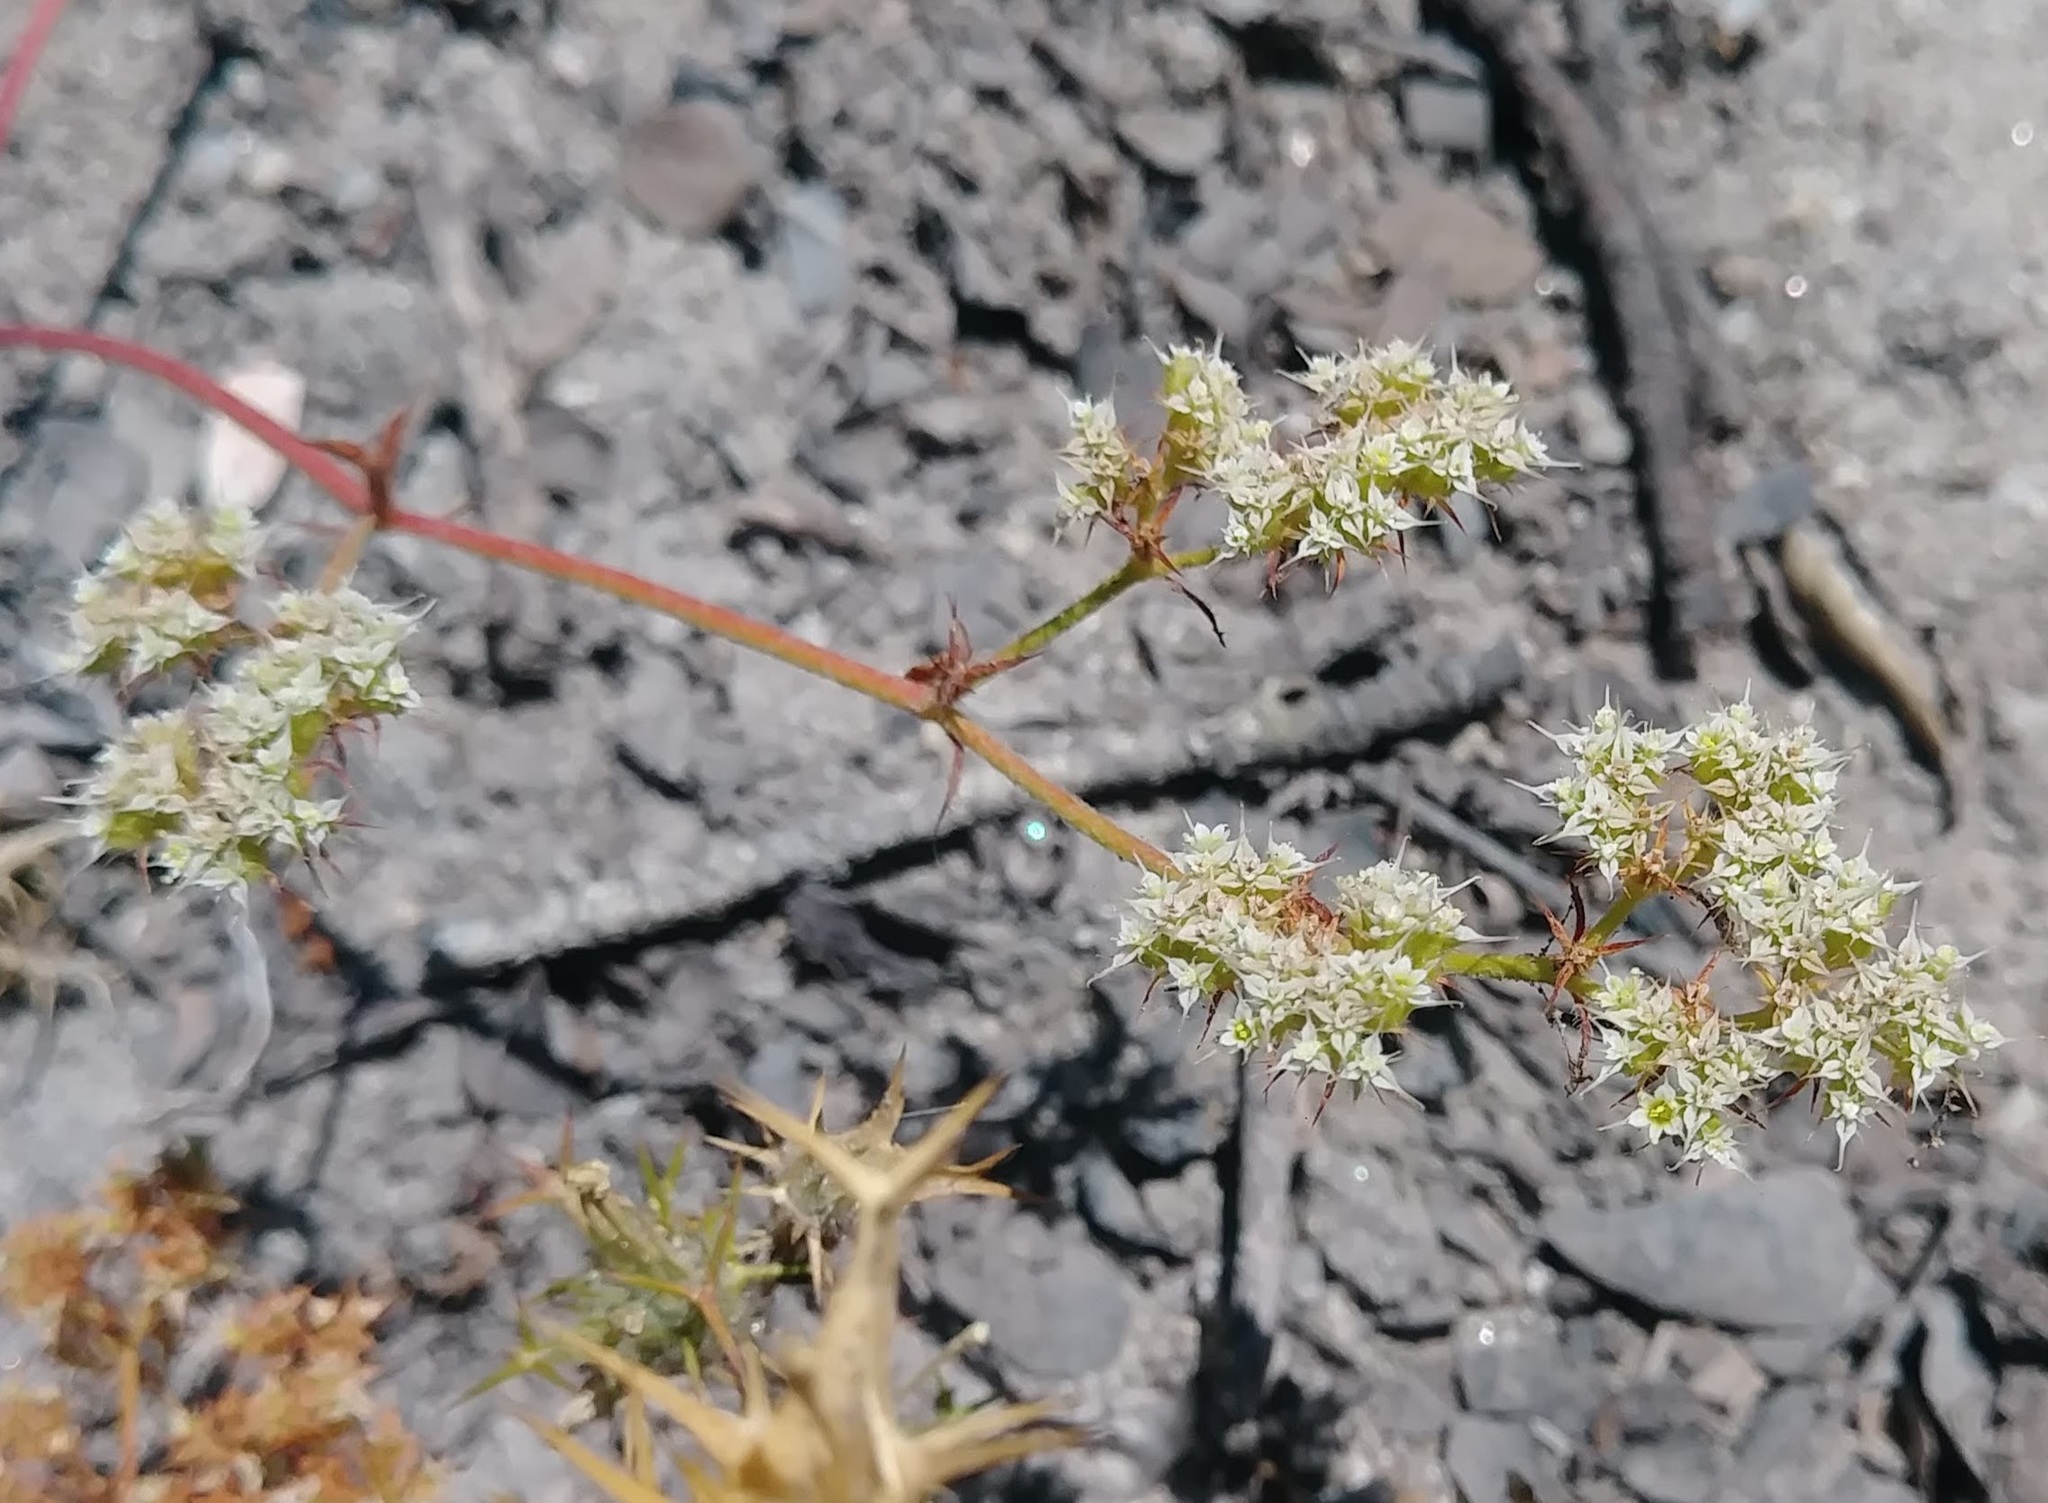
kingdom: Plantae
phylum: Tracheophyta
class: Magnoliopsida
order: Caryophyllales
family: Polygonaceae
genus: Chorizanthe
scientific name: Chorizanthe diffusa
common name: Diffuse spineflower
